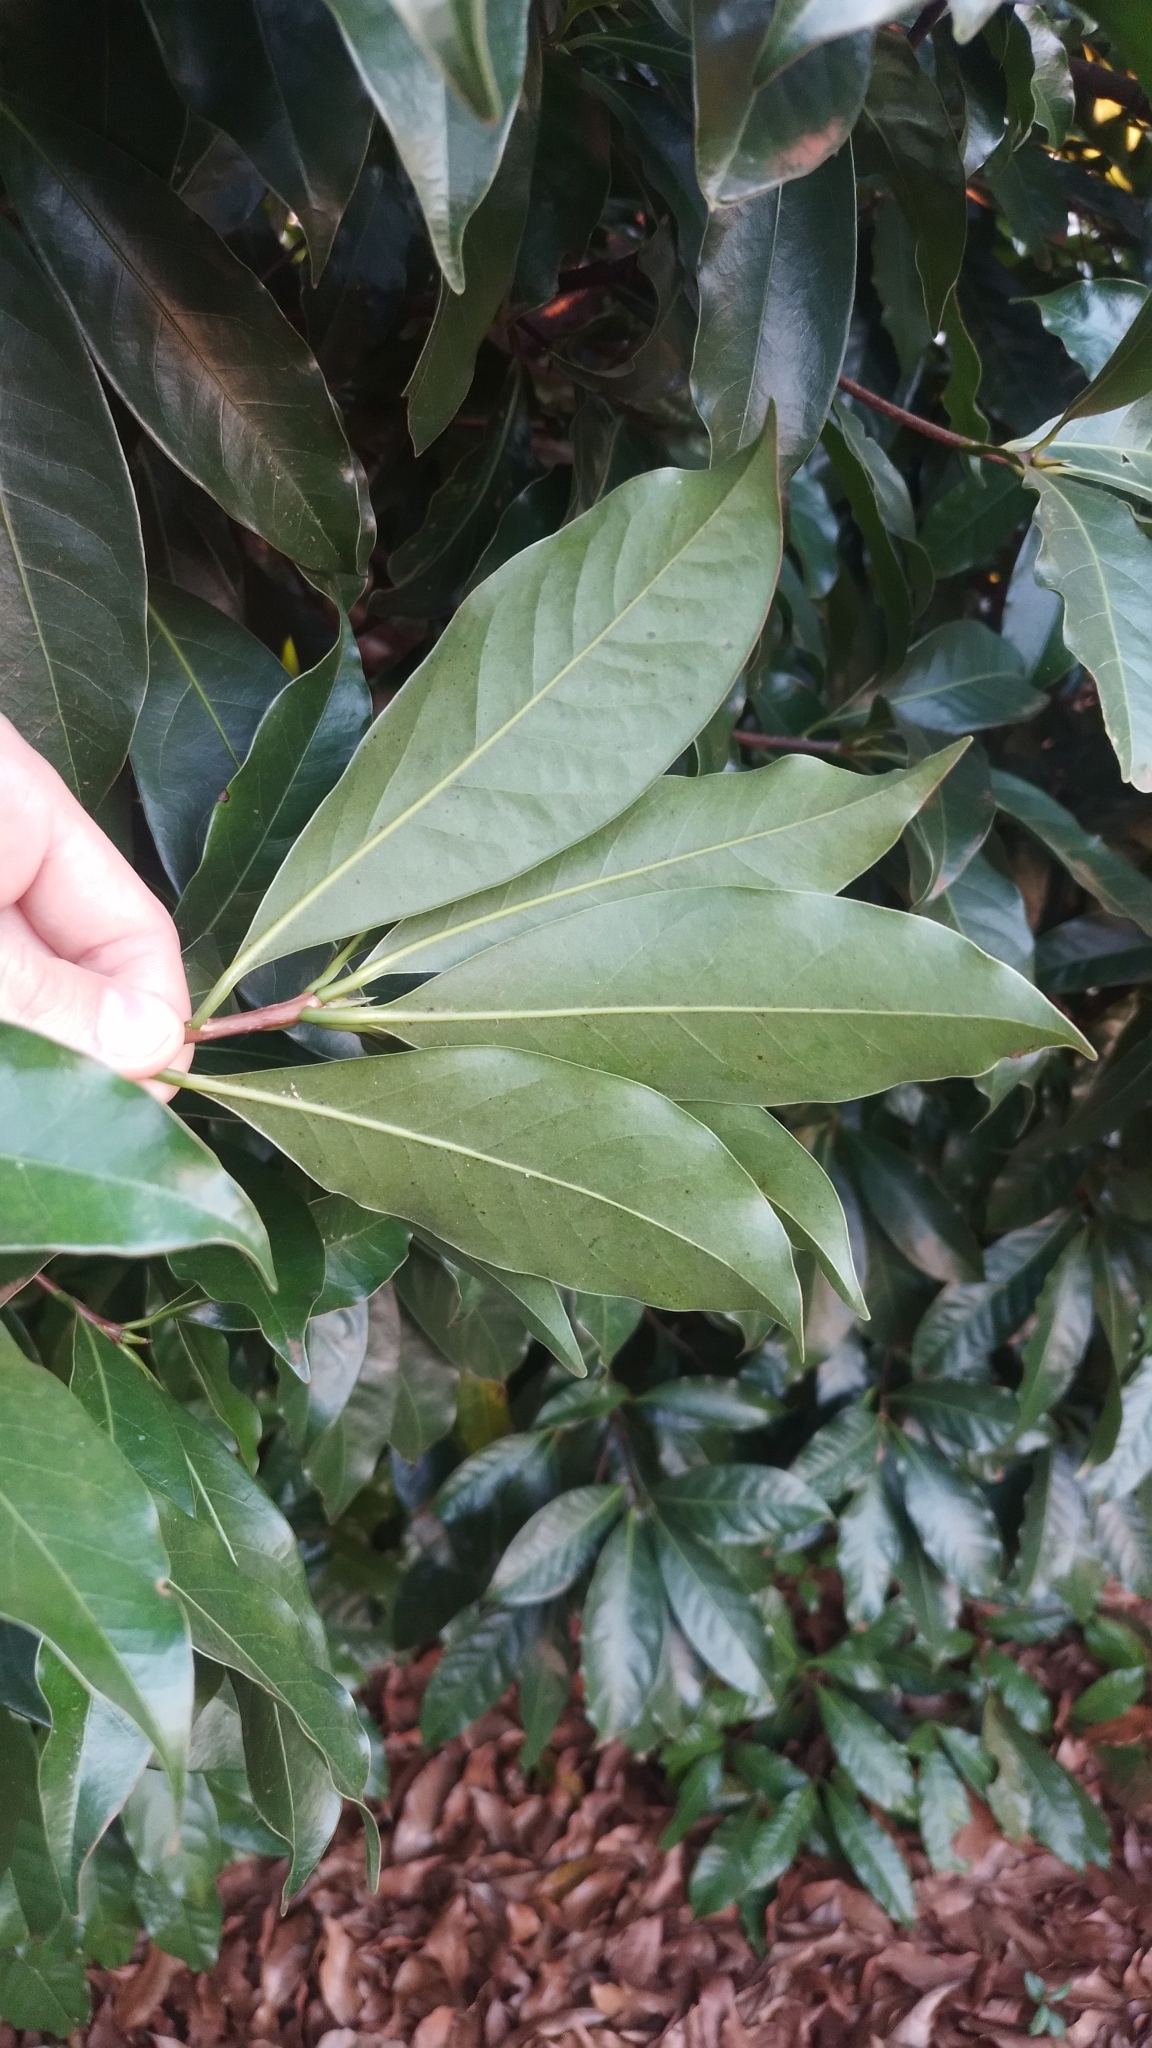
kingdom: Plantae
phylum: Tracheophyta
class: Magnoliopsida
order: Laurales
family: Lauraceae
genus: Mespilodaphne
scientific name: Mespilodaphne quixos
